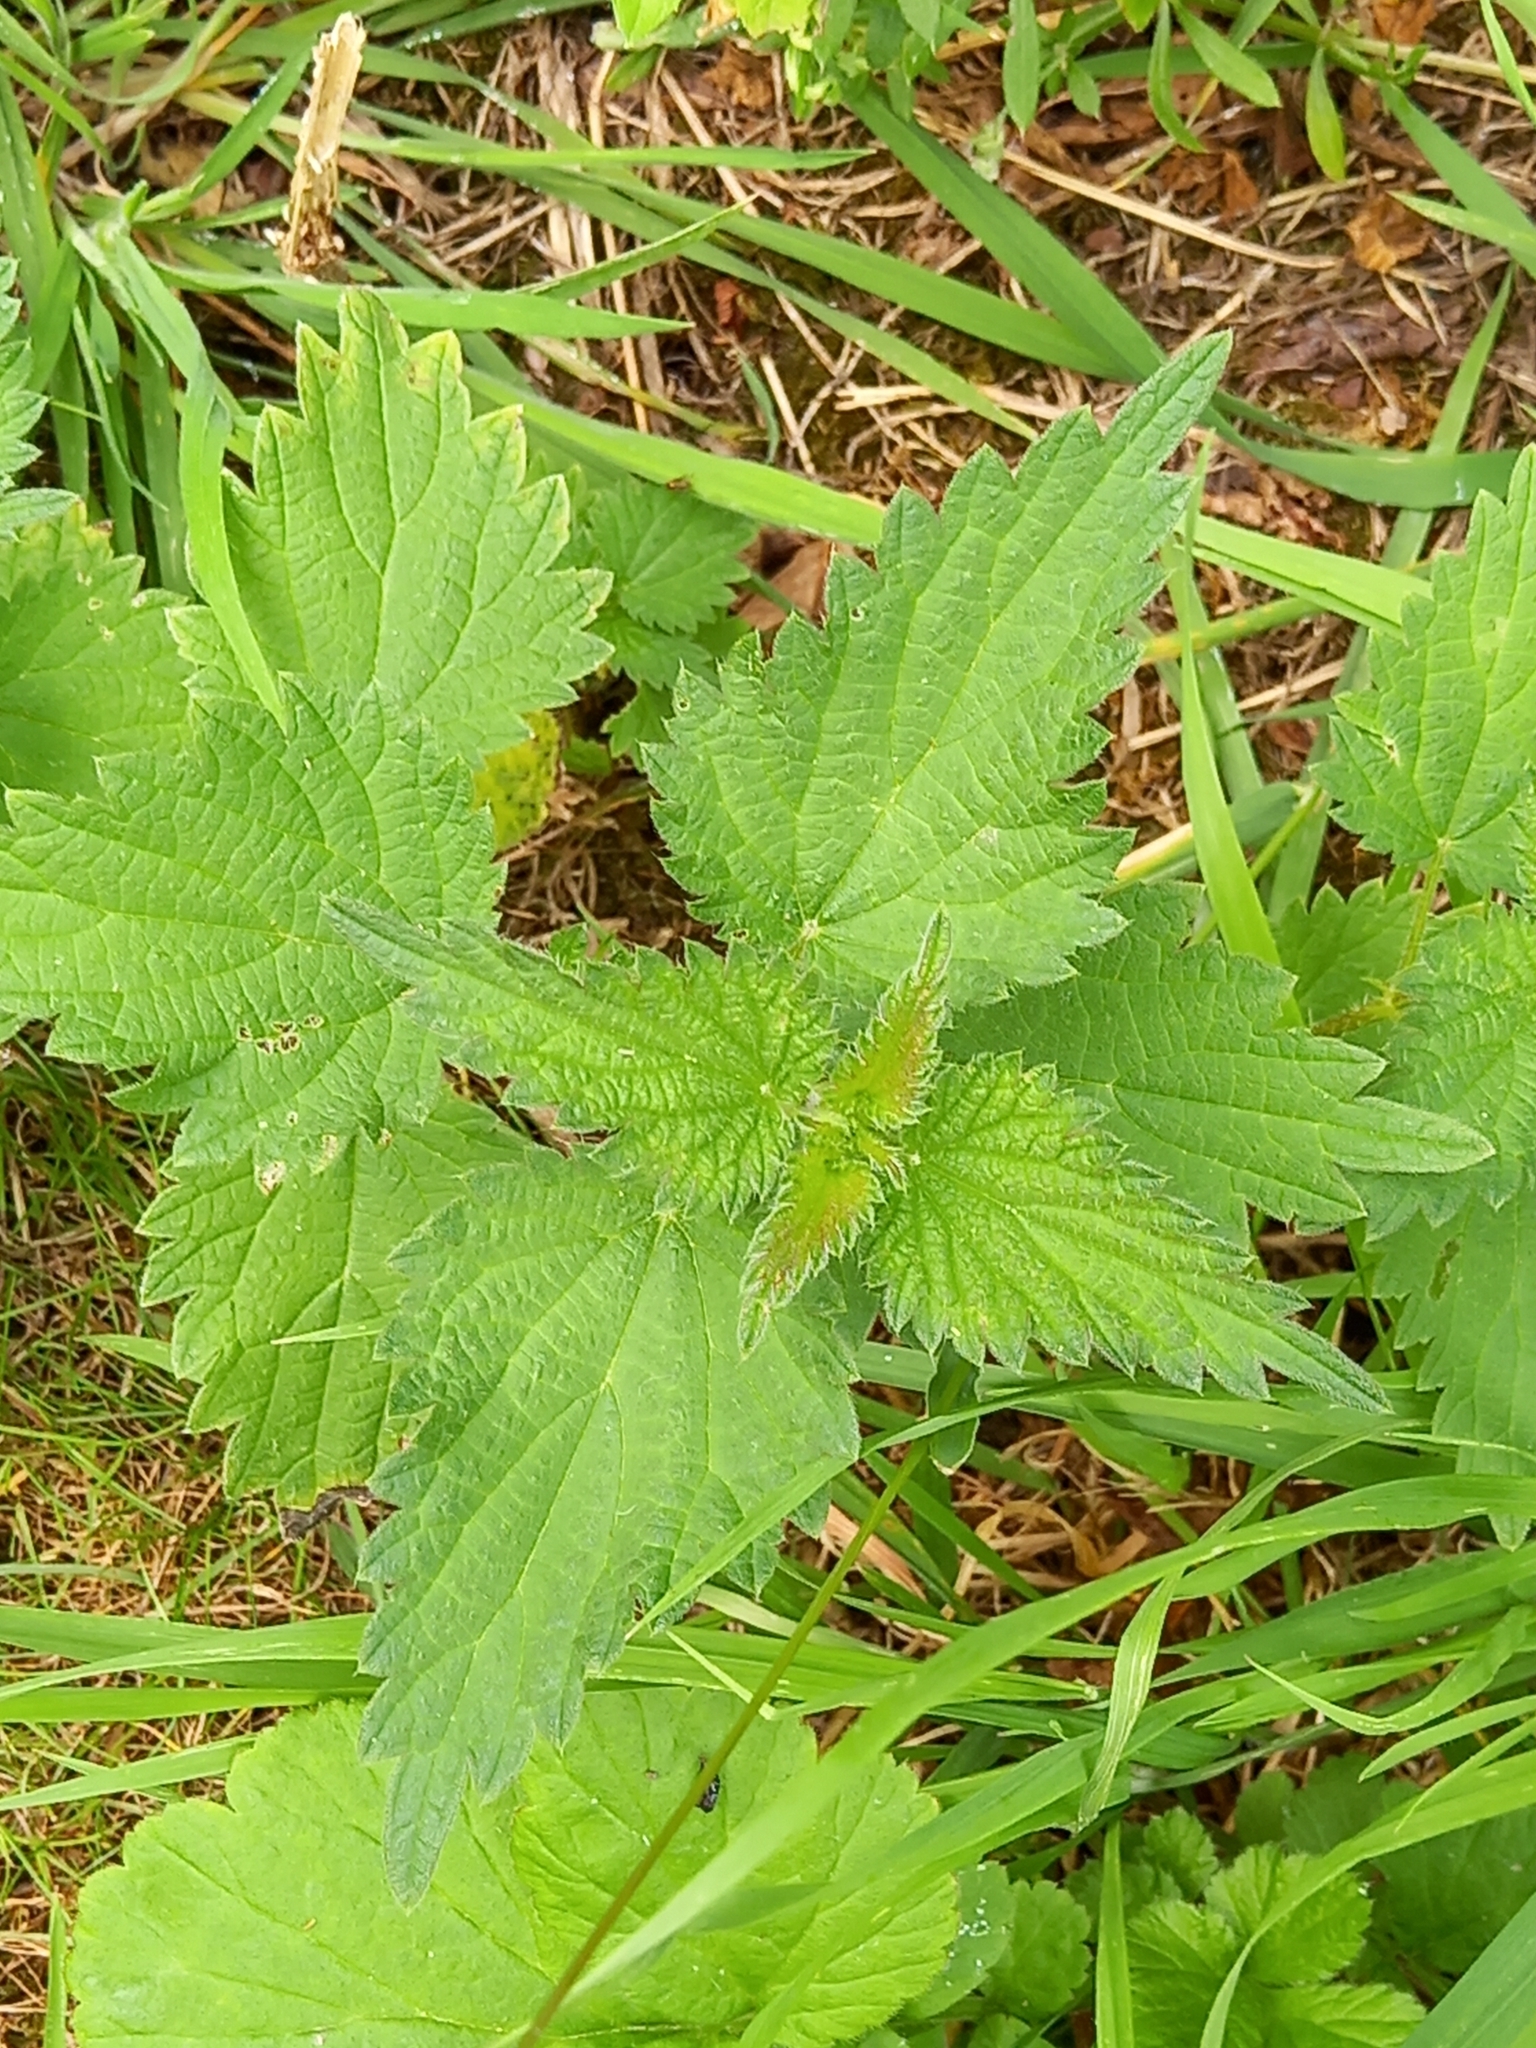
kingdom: Plantae
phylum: Tracheophyta
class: Magnoliopsida
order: Rosales
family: Urticaceae
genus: Urtica
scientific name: Urtica dioica
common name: Common nettle
